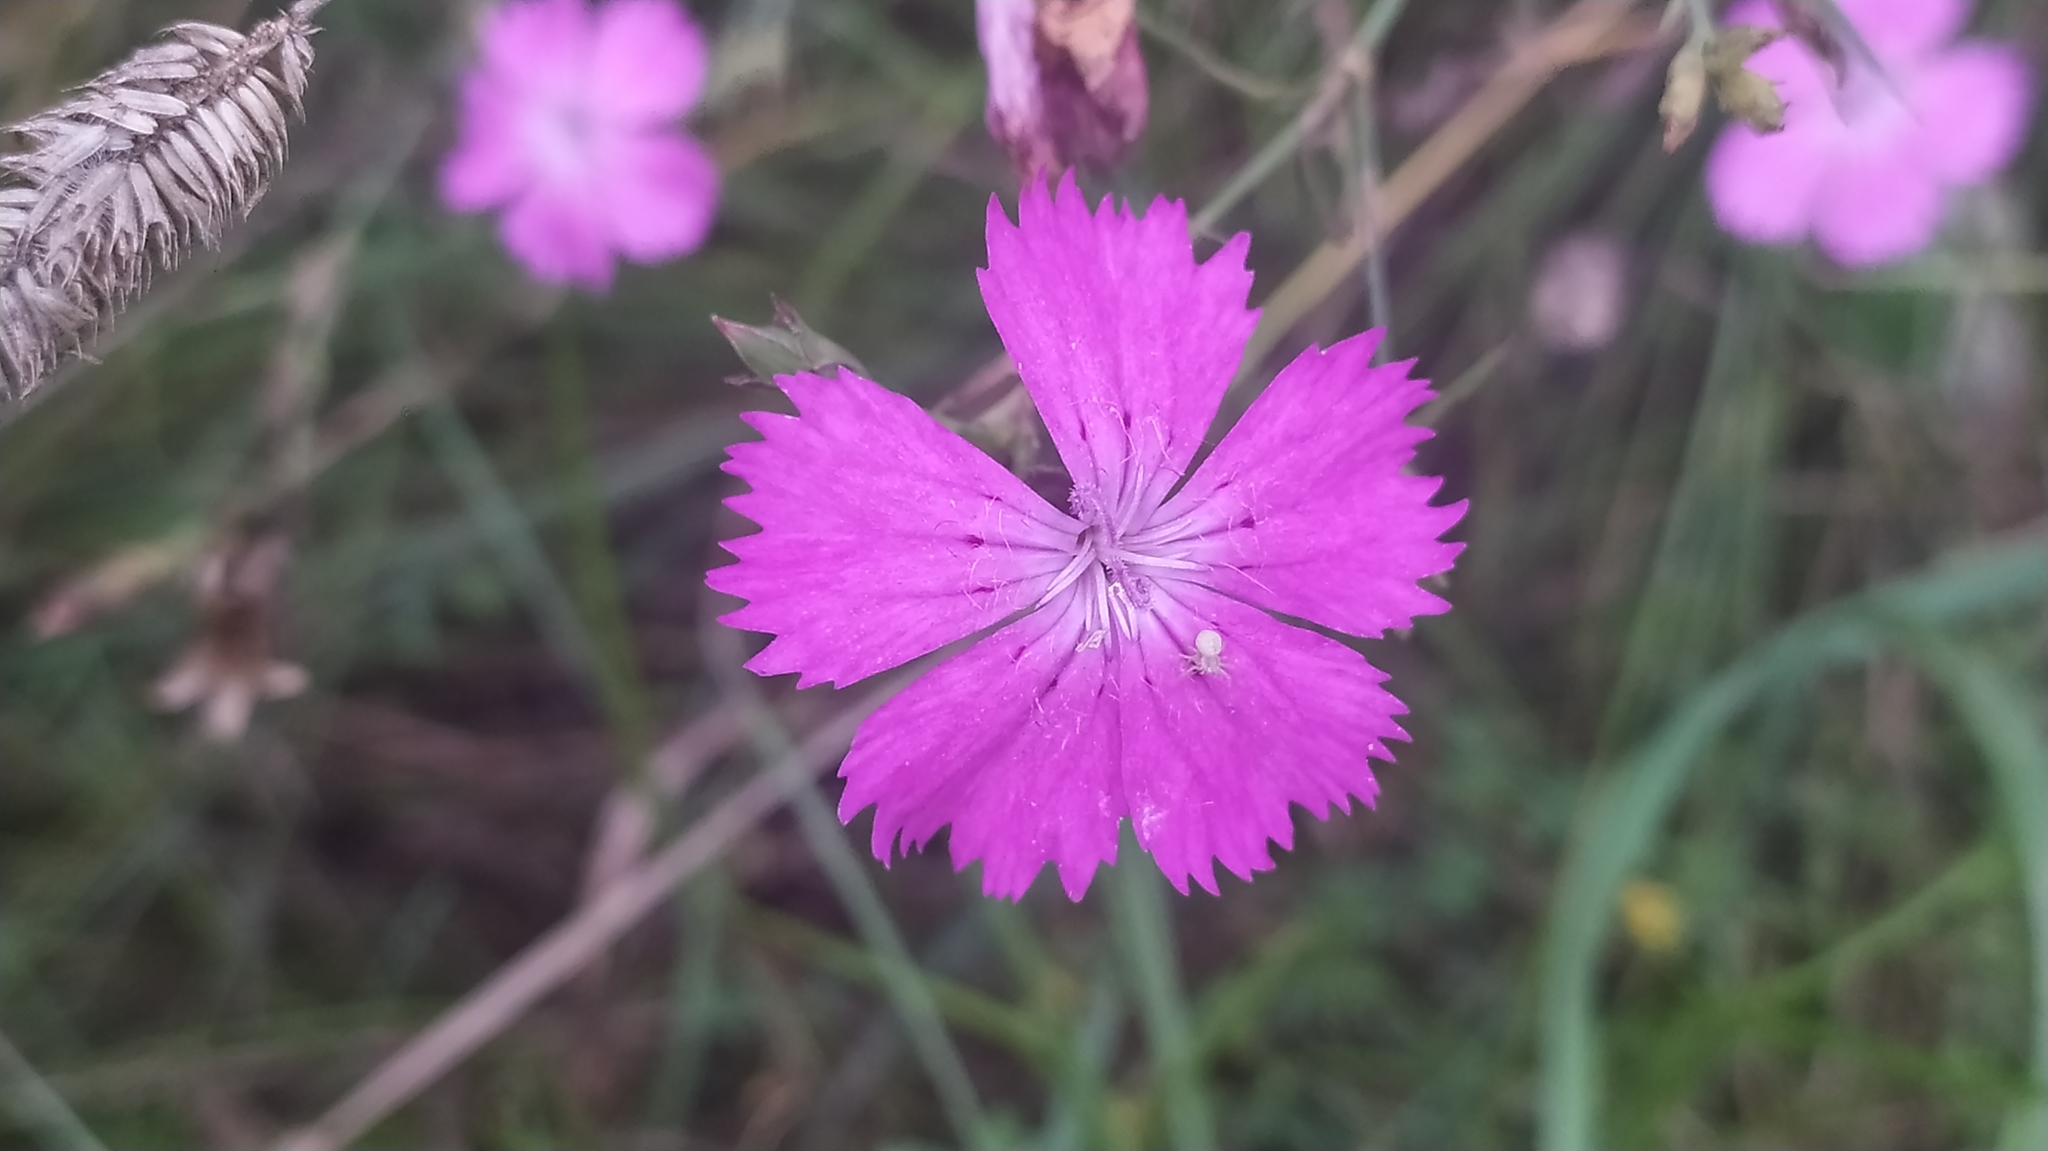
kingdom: Plantae
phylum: Tracheophyta
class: Magnoliopsida
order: Caryophyllales
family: Caryophyllaceae
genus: Dianthus
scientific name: Dianthus chinensis
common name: Rainbow pink
